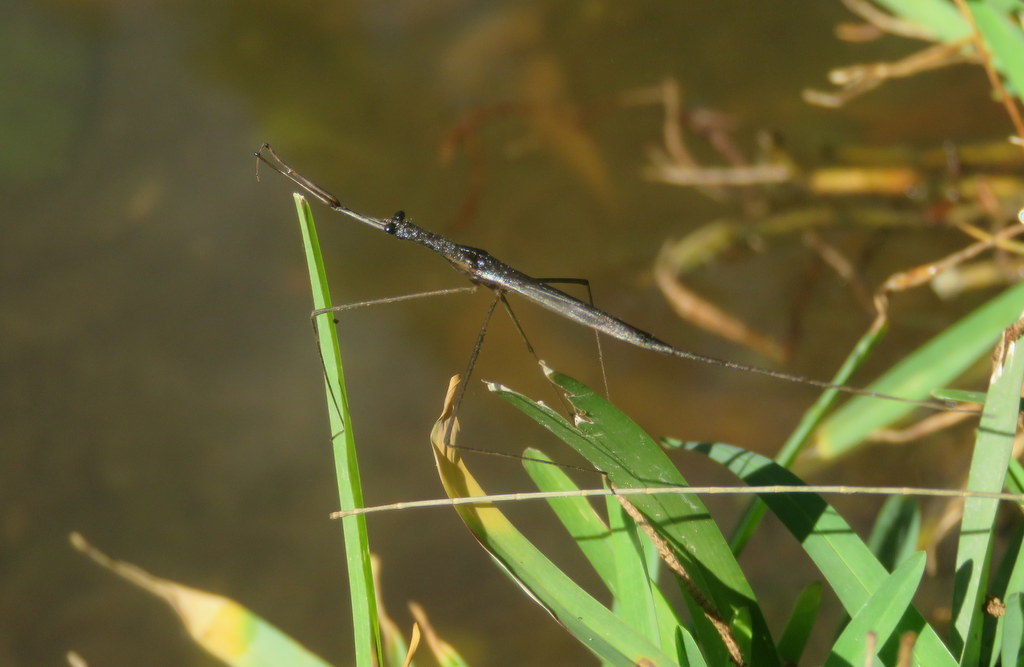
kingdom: Animalia
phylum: Arthropoda
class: Insecta
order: Hemiptera
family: Nepidae
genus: Ranatra
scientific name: Ranatra
